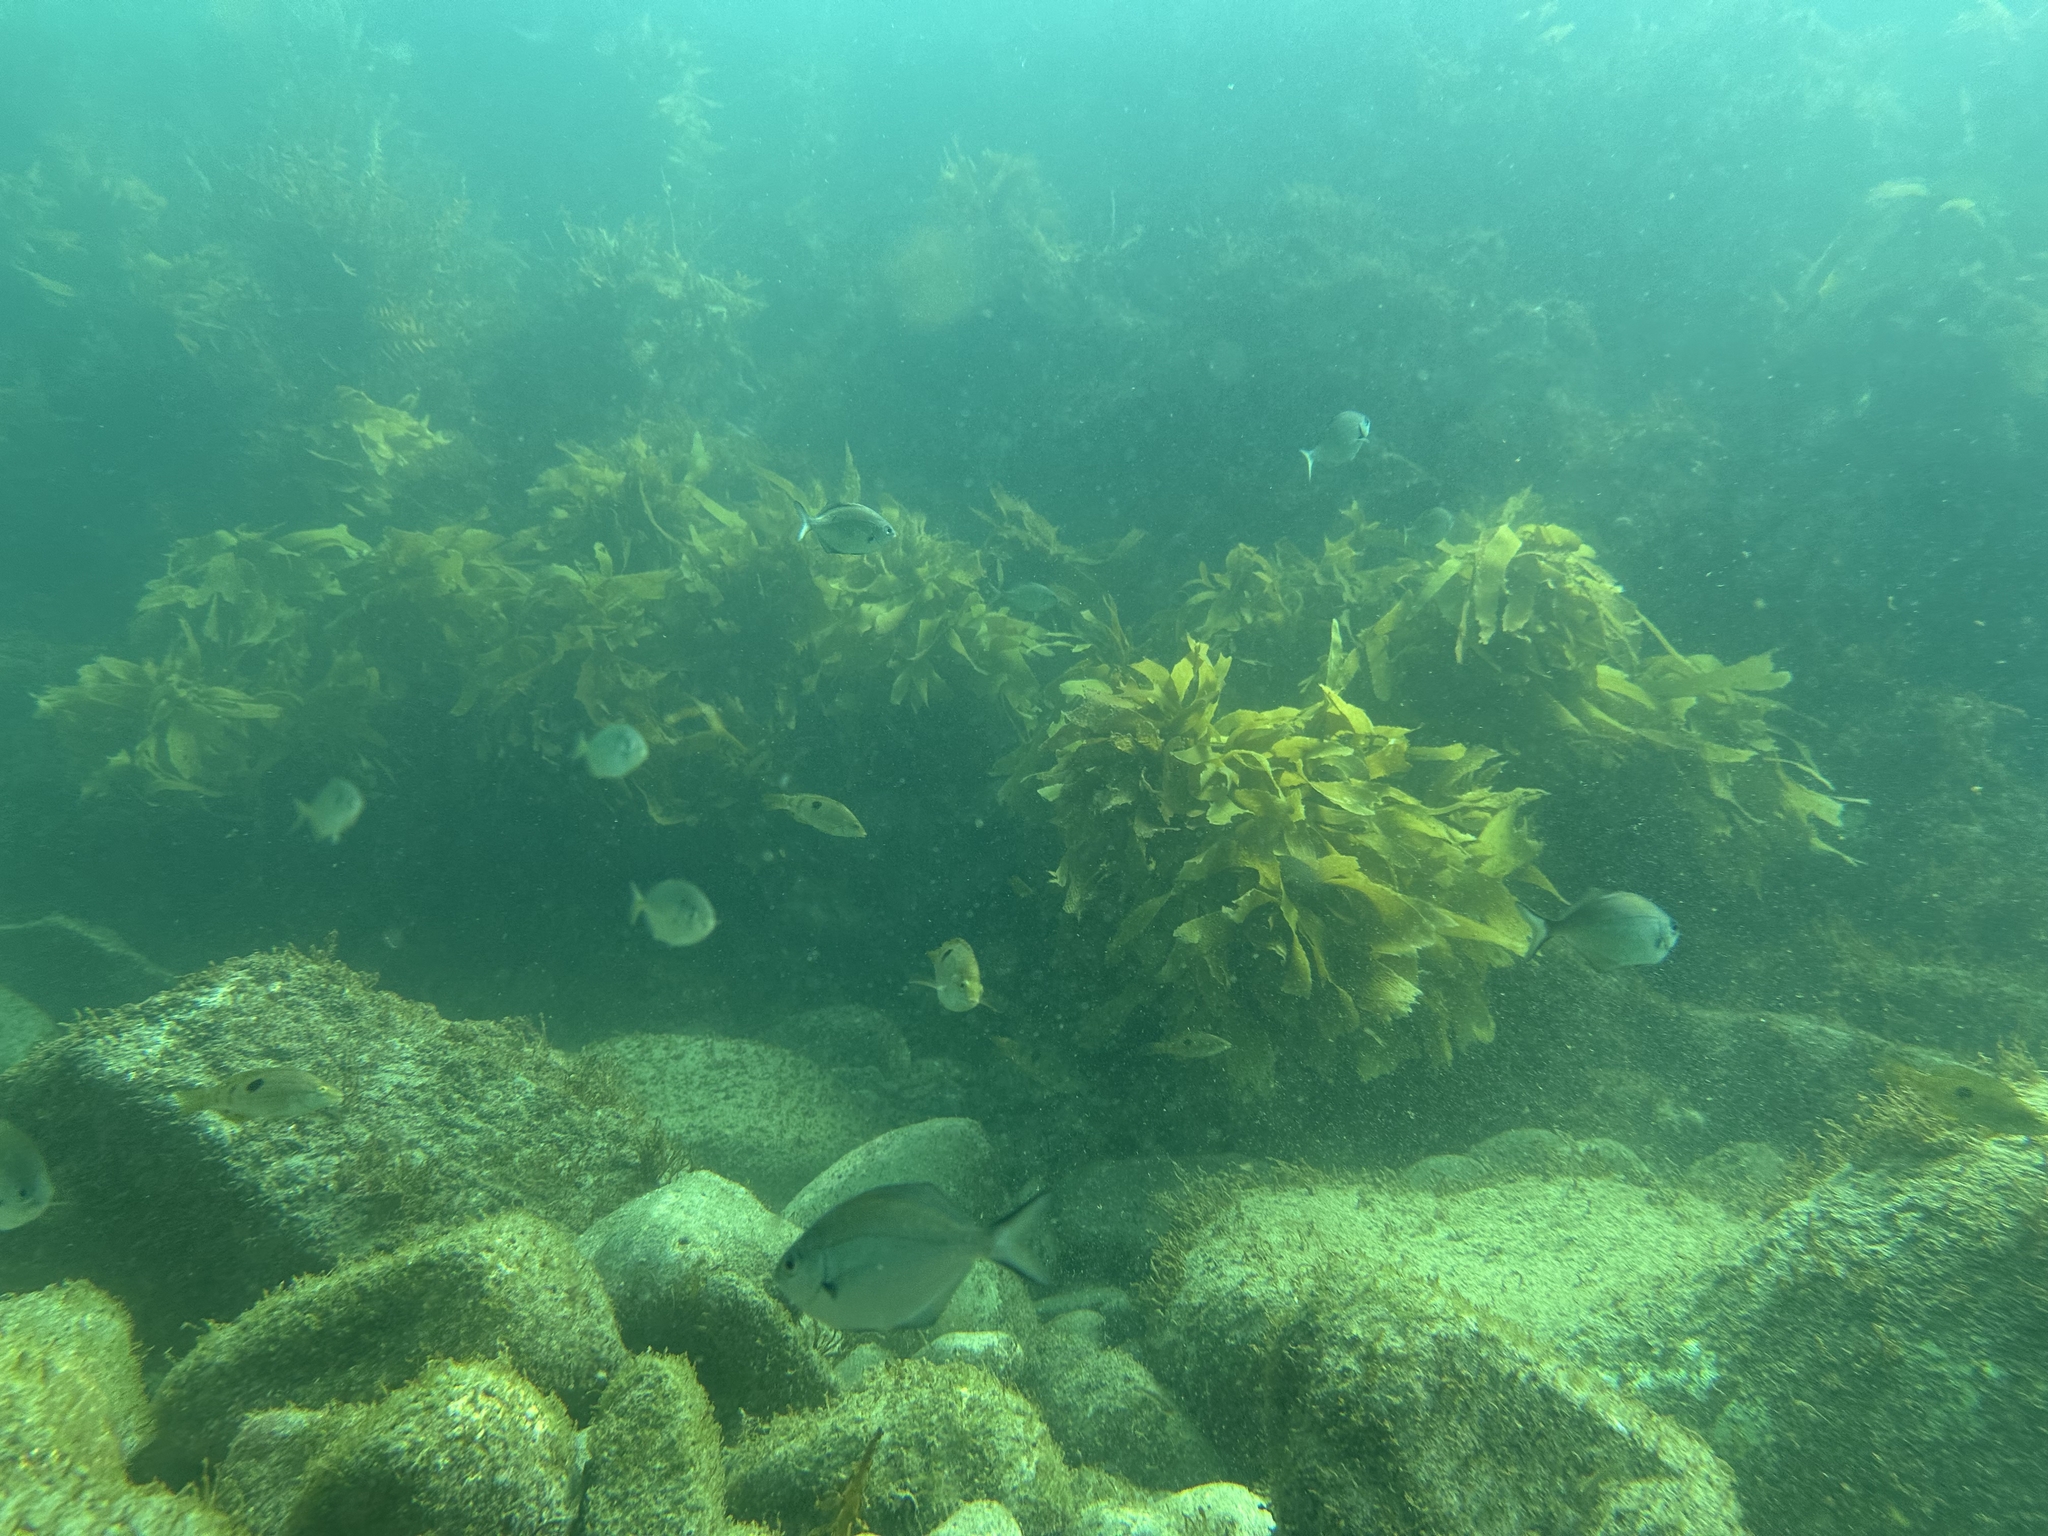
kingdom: Animalia
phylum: Chordata
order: Perciformes
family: Labridae
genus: Notolabrus
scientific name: Notolabrus celidotus
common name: Spotty
